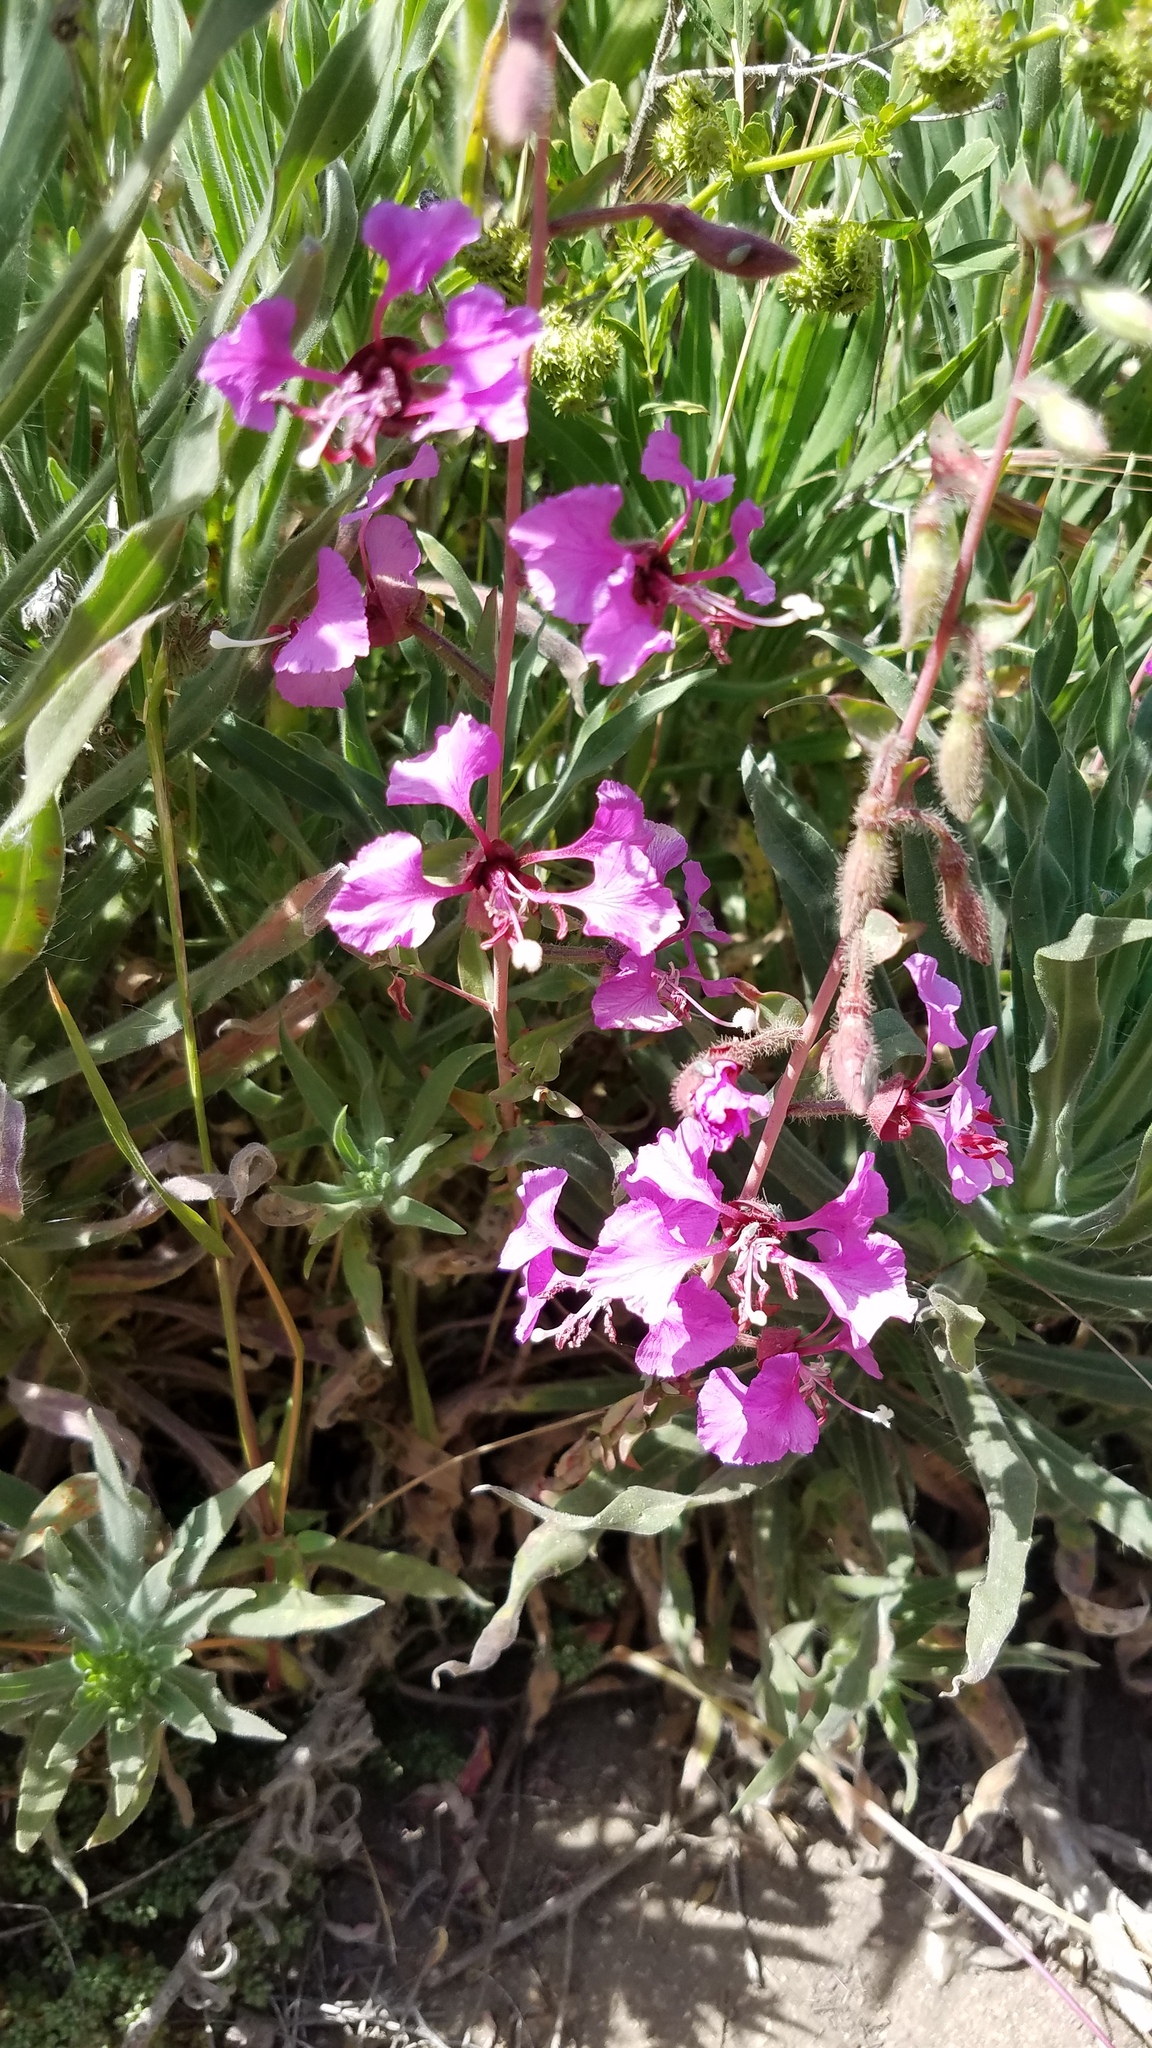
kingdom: Plantae
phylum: Tracheophyta
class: Magnoliopsida
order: Myrtales
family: Onagraceae
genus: Clarkia
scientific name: Clarkia unguiculata
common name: Clarkia
